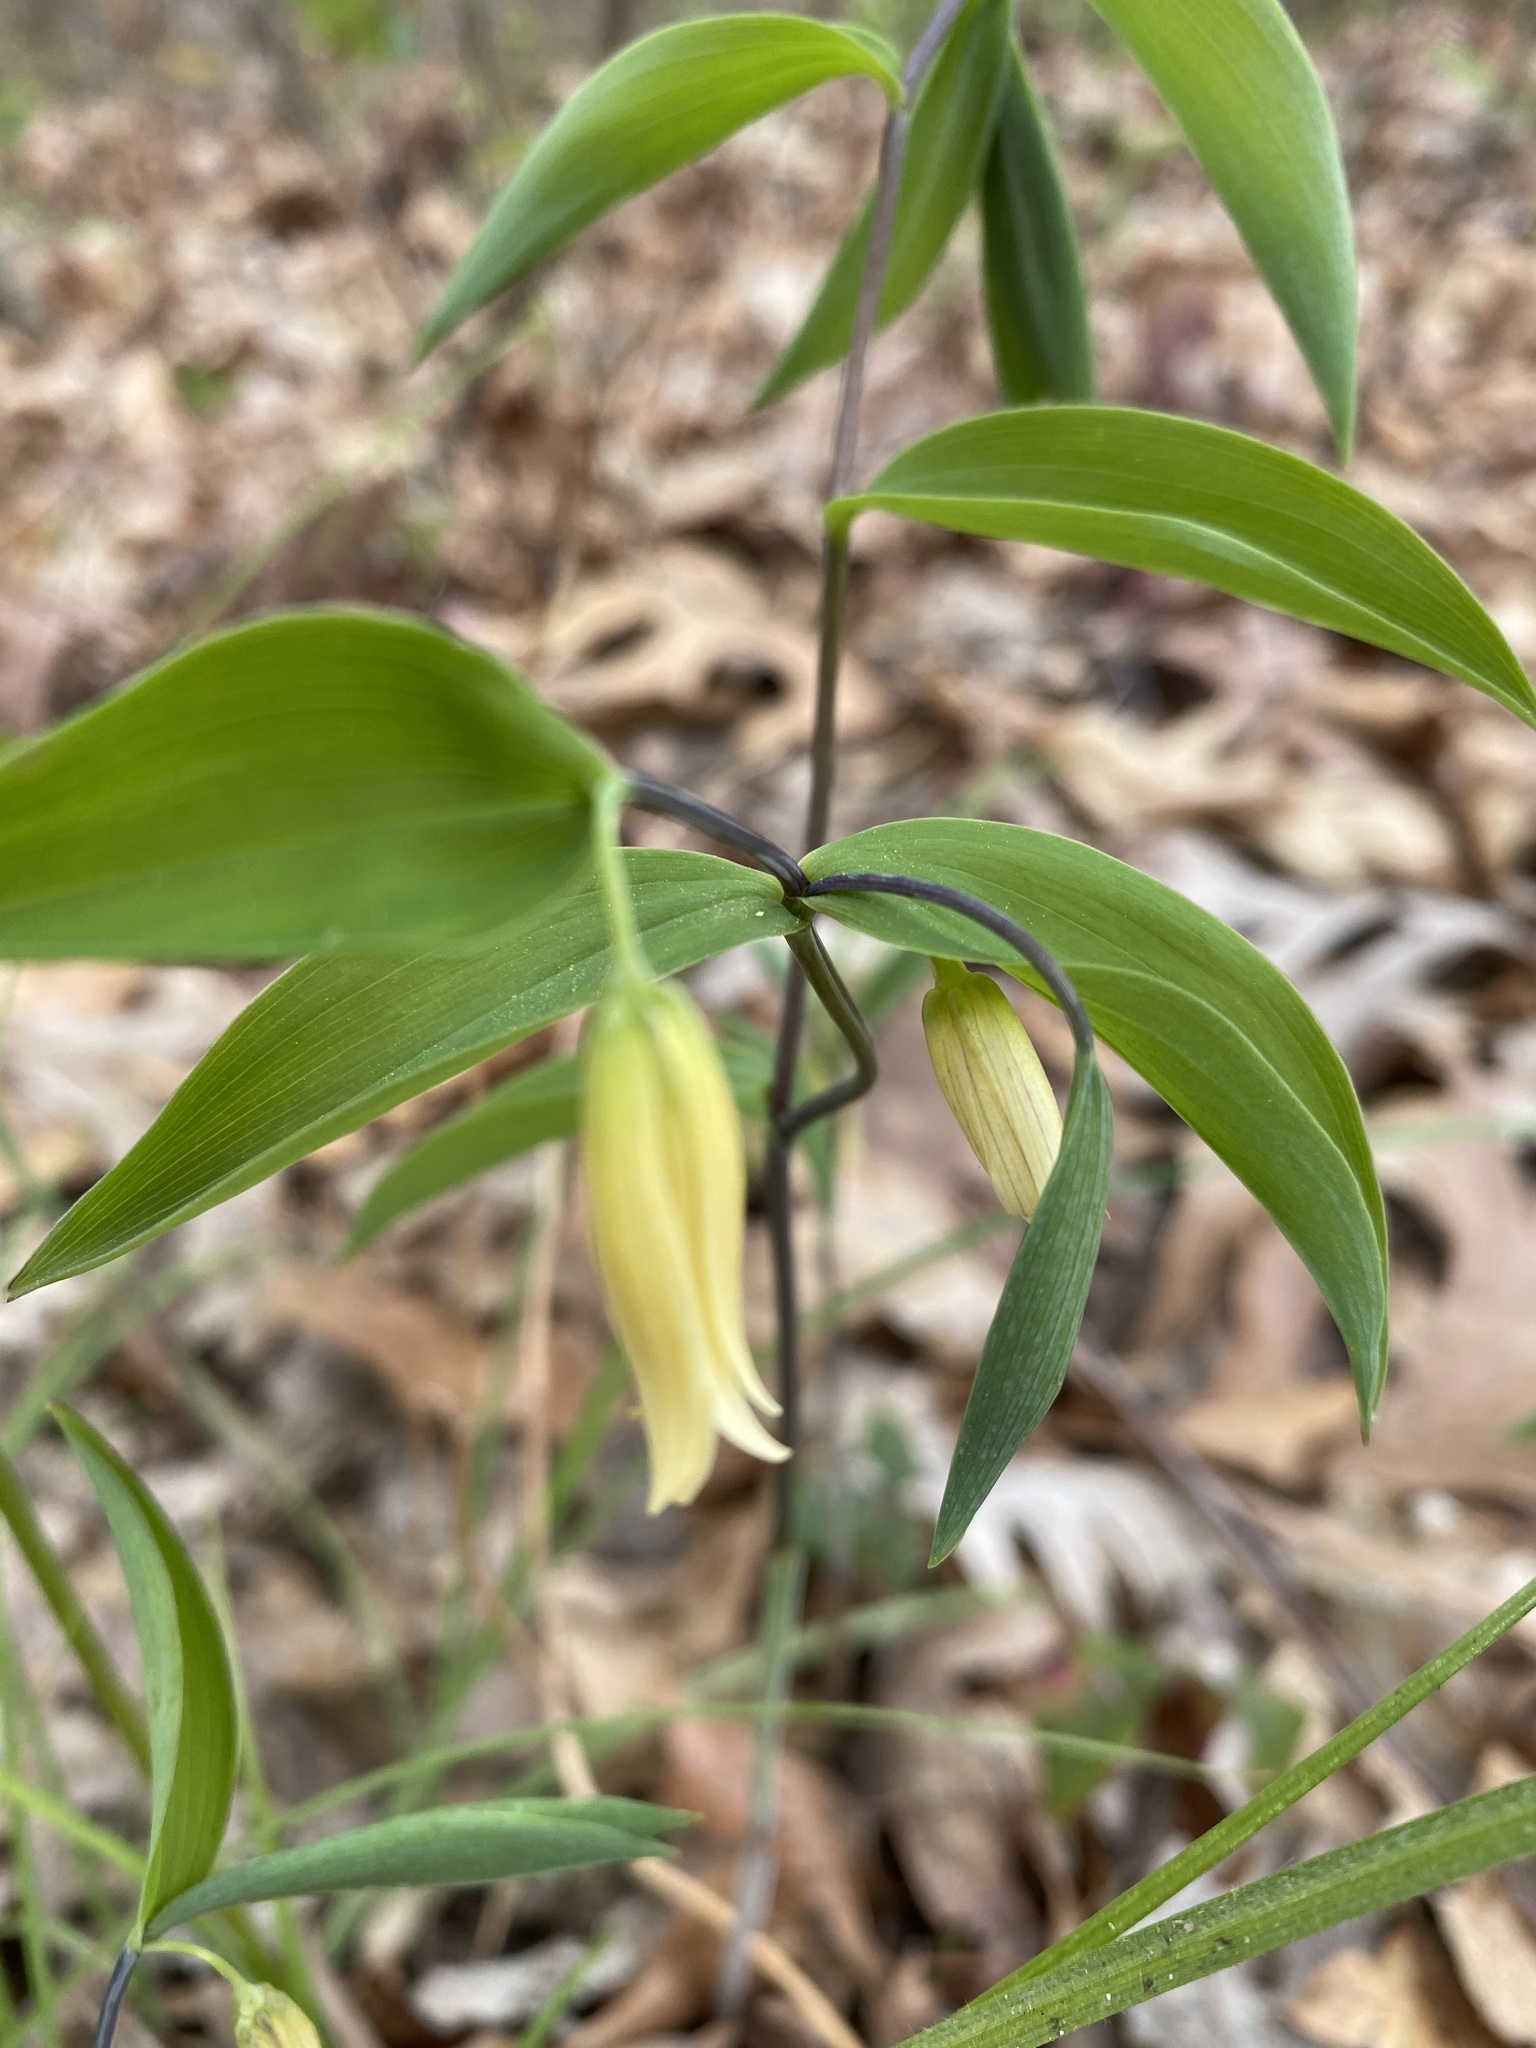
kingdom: Plantae
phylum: Tracheophyta
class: Liliopsida
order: Liliales
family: Colchicaceae
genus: Uvularia
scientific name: Uvularia sessilifolia
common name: Straw-lily
